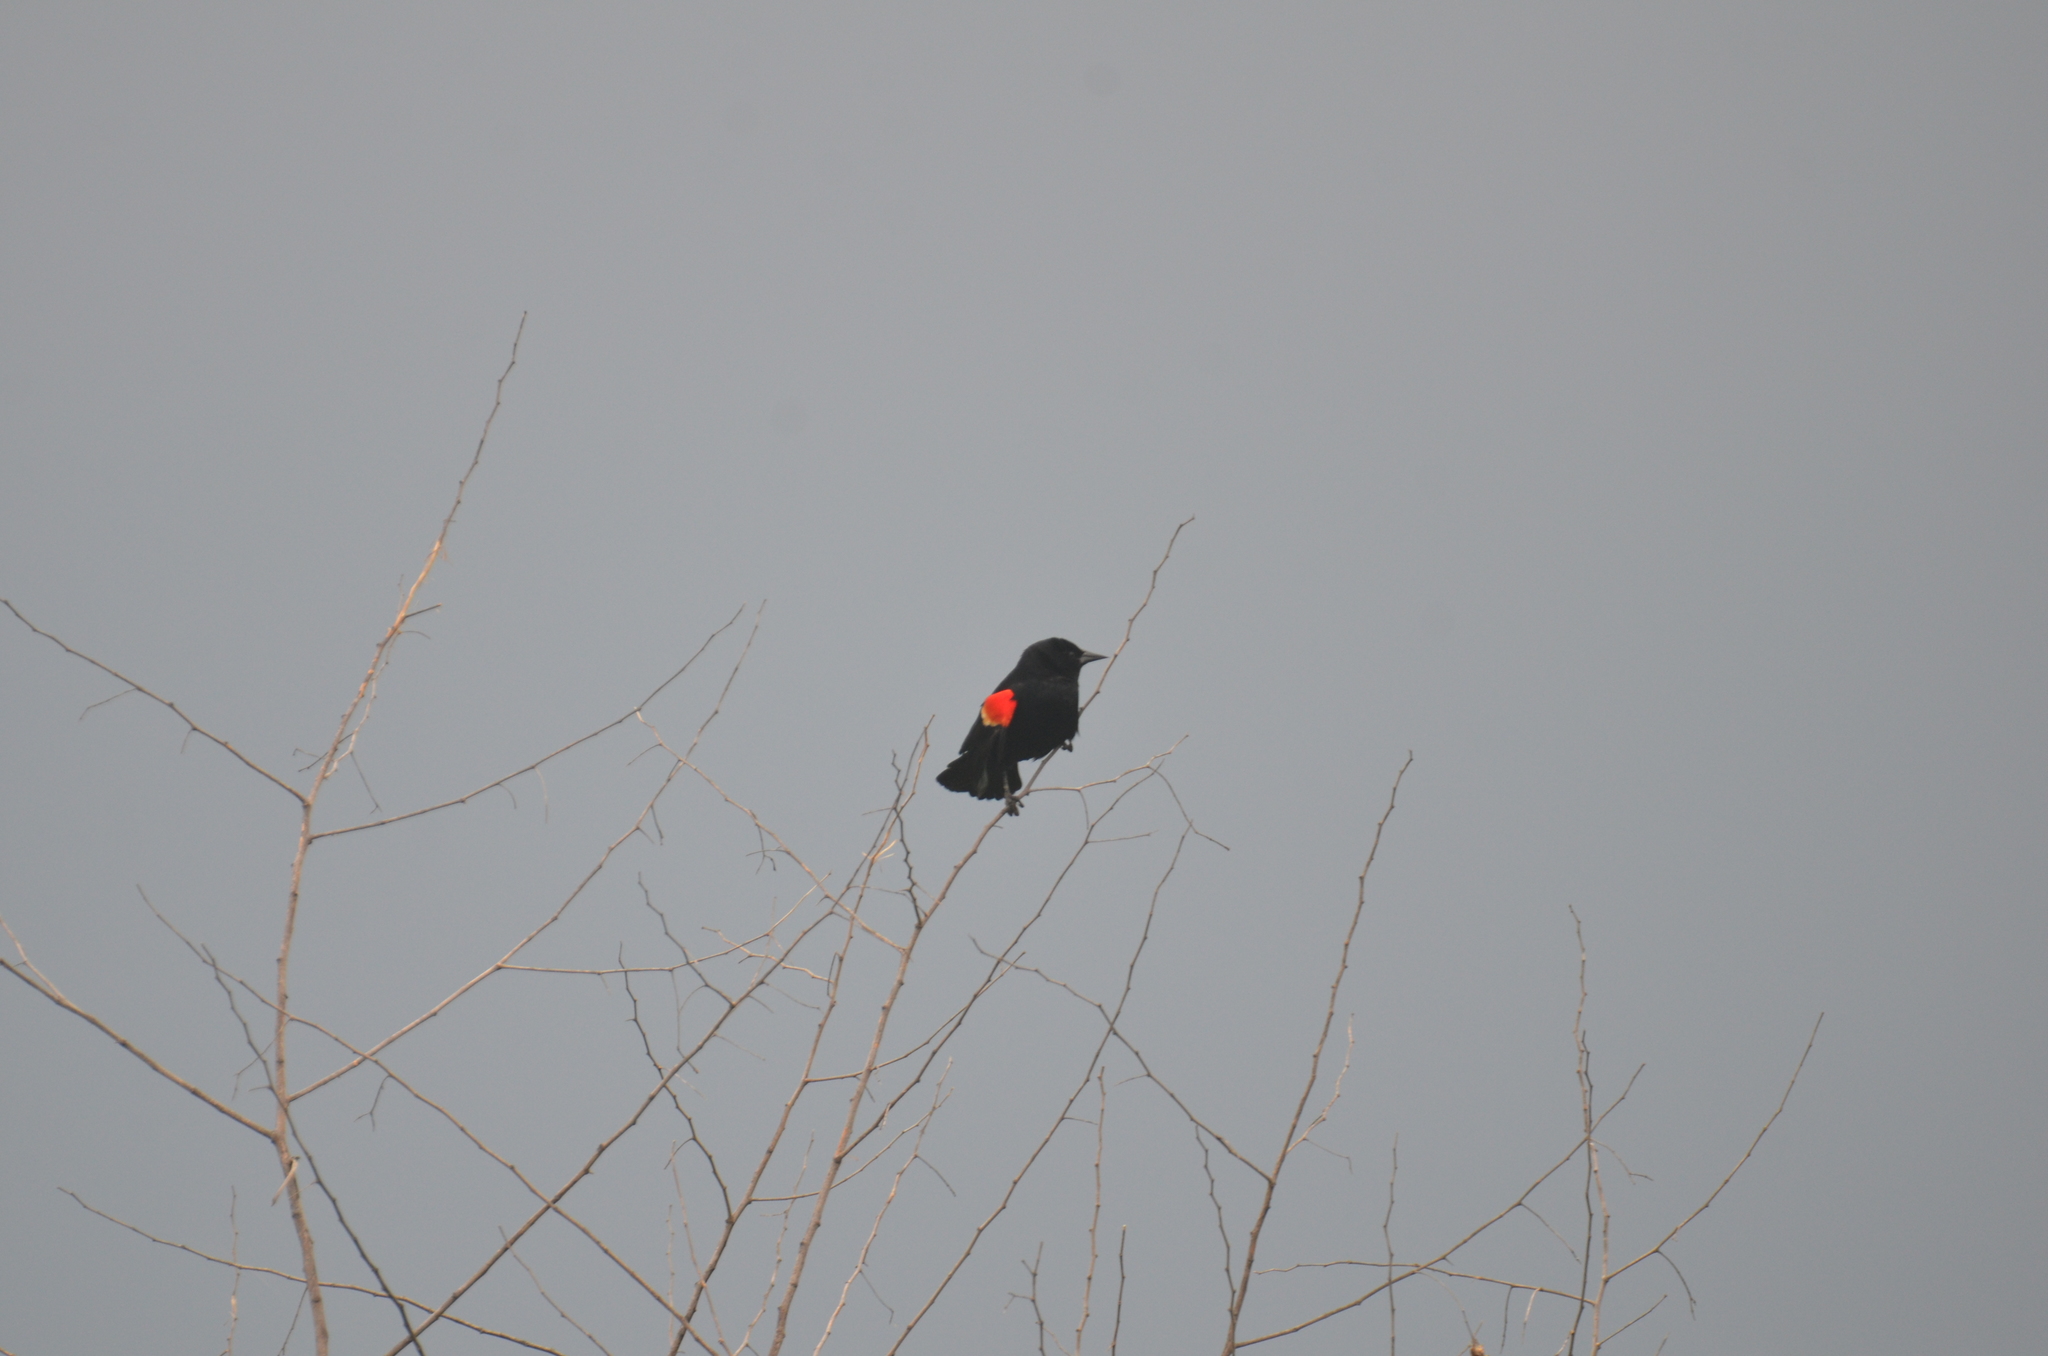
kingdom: Animalia
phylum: Chordata
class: Aves
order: Passeriformes
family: Icteridae
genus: Agelaius
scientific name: Agelaius phoeniceus
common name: Red-winged blackbird
